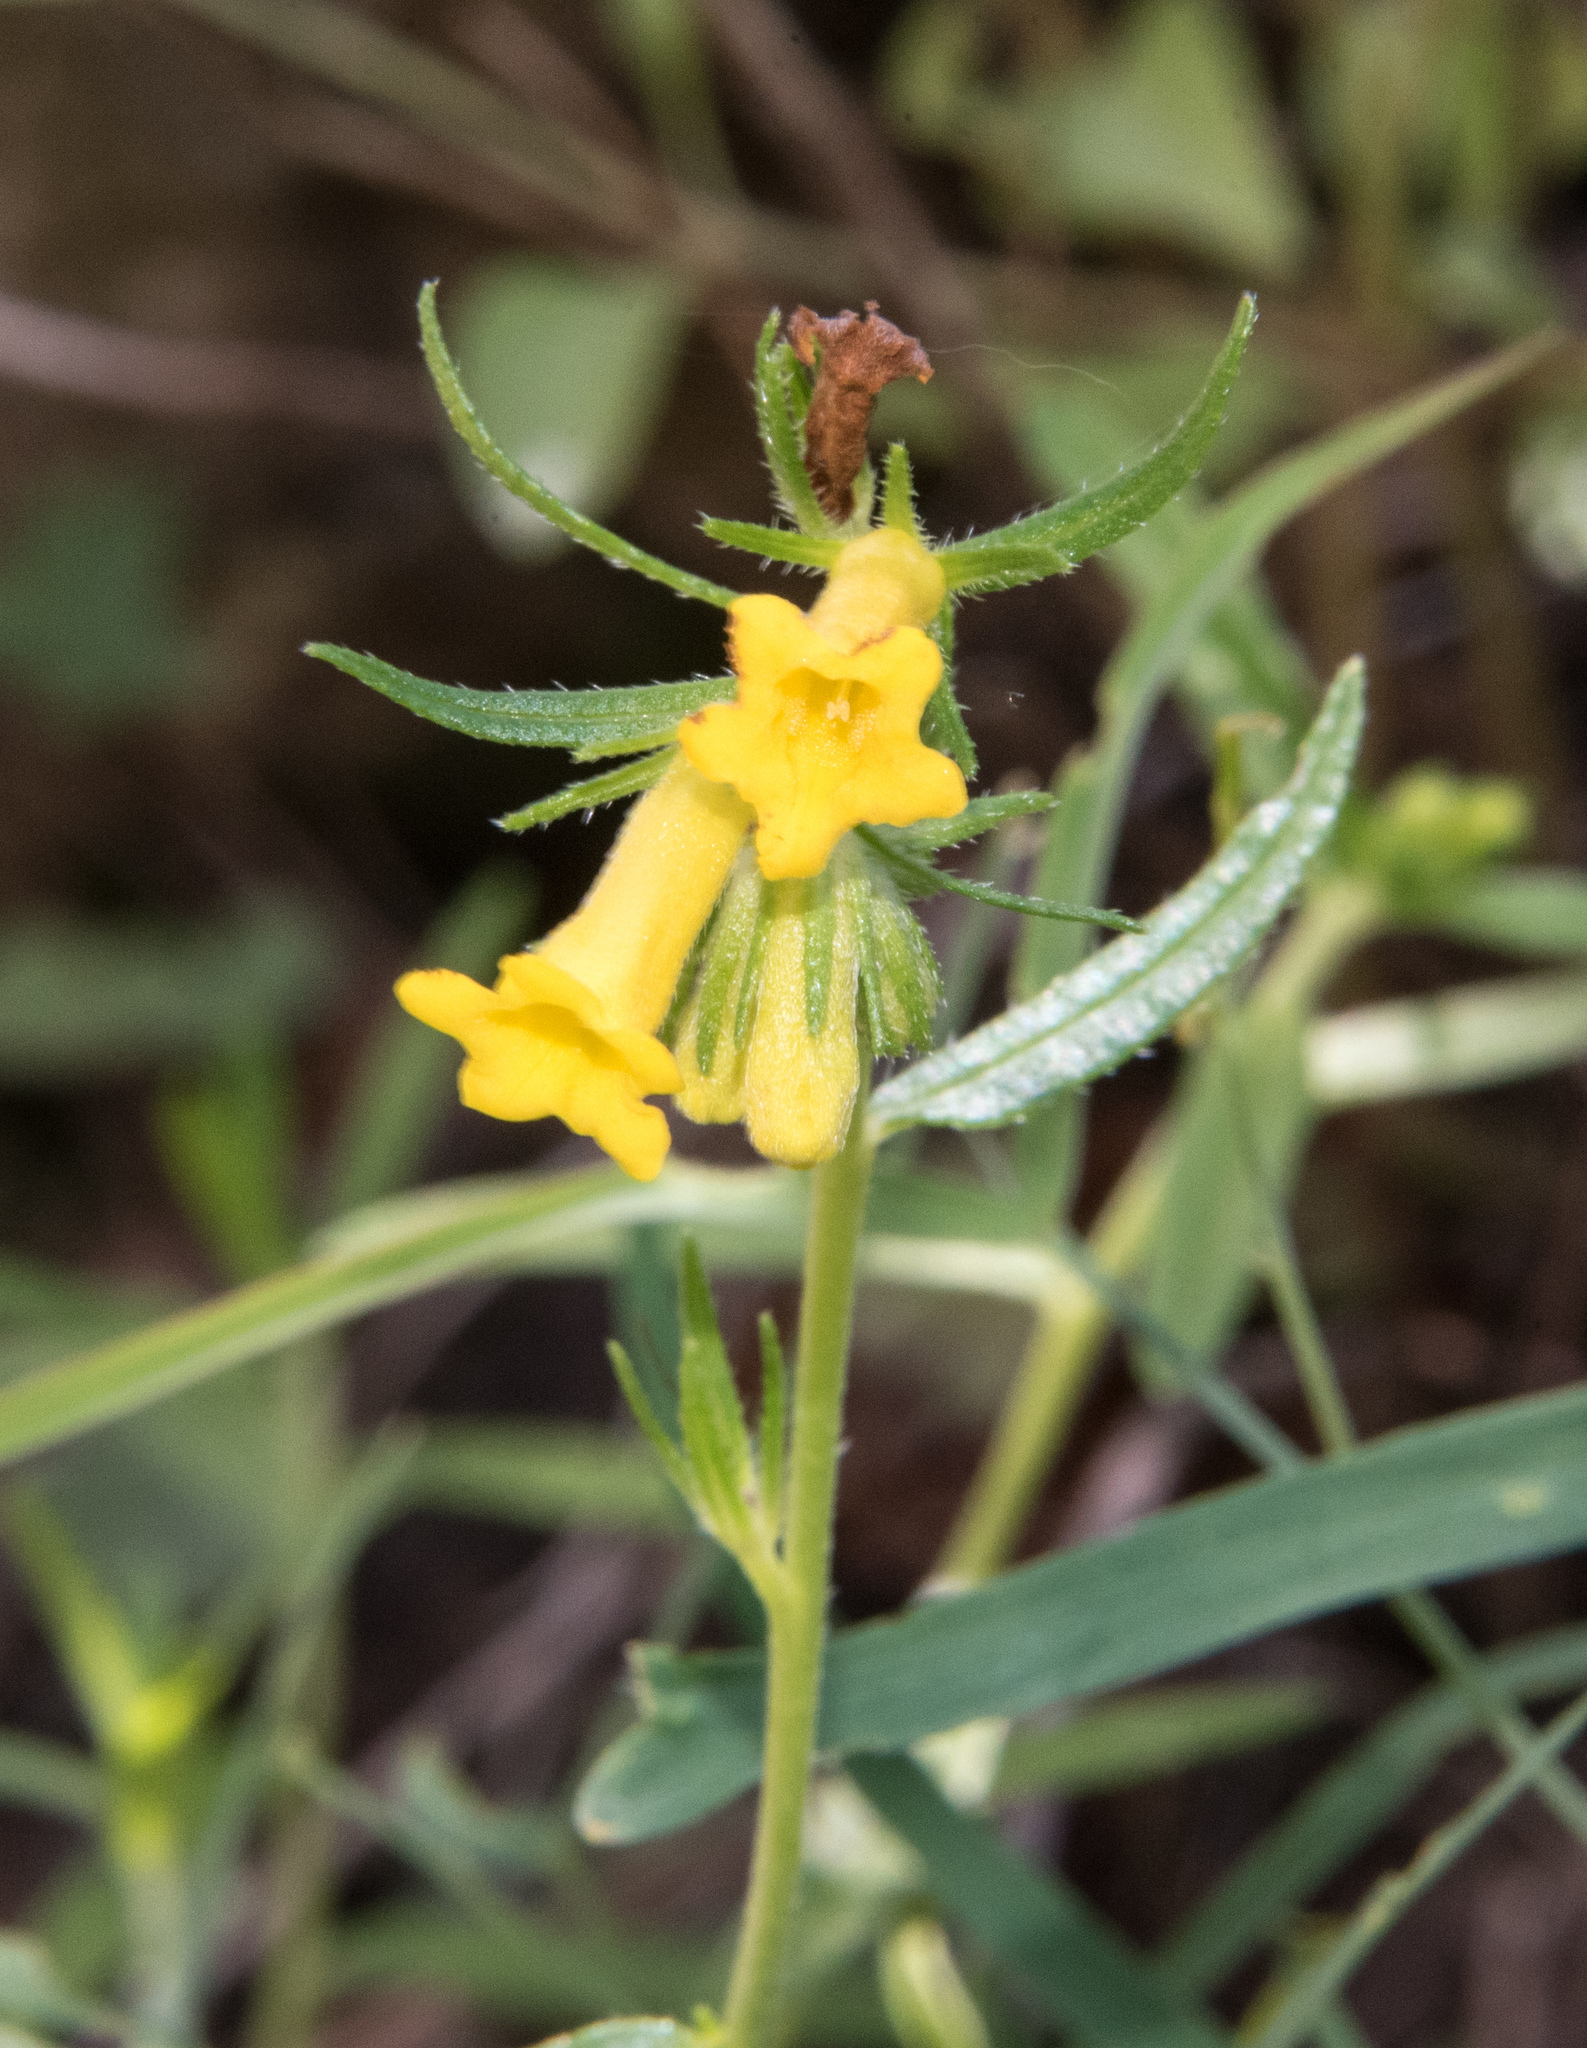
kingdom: Plantae
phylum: Tracheophyta
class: Magnoliopsida
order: Boraginales
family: Boraginaceae
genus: Lithospermum
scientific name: Lithospermum multiflorum
